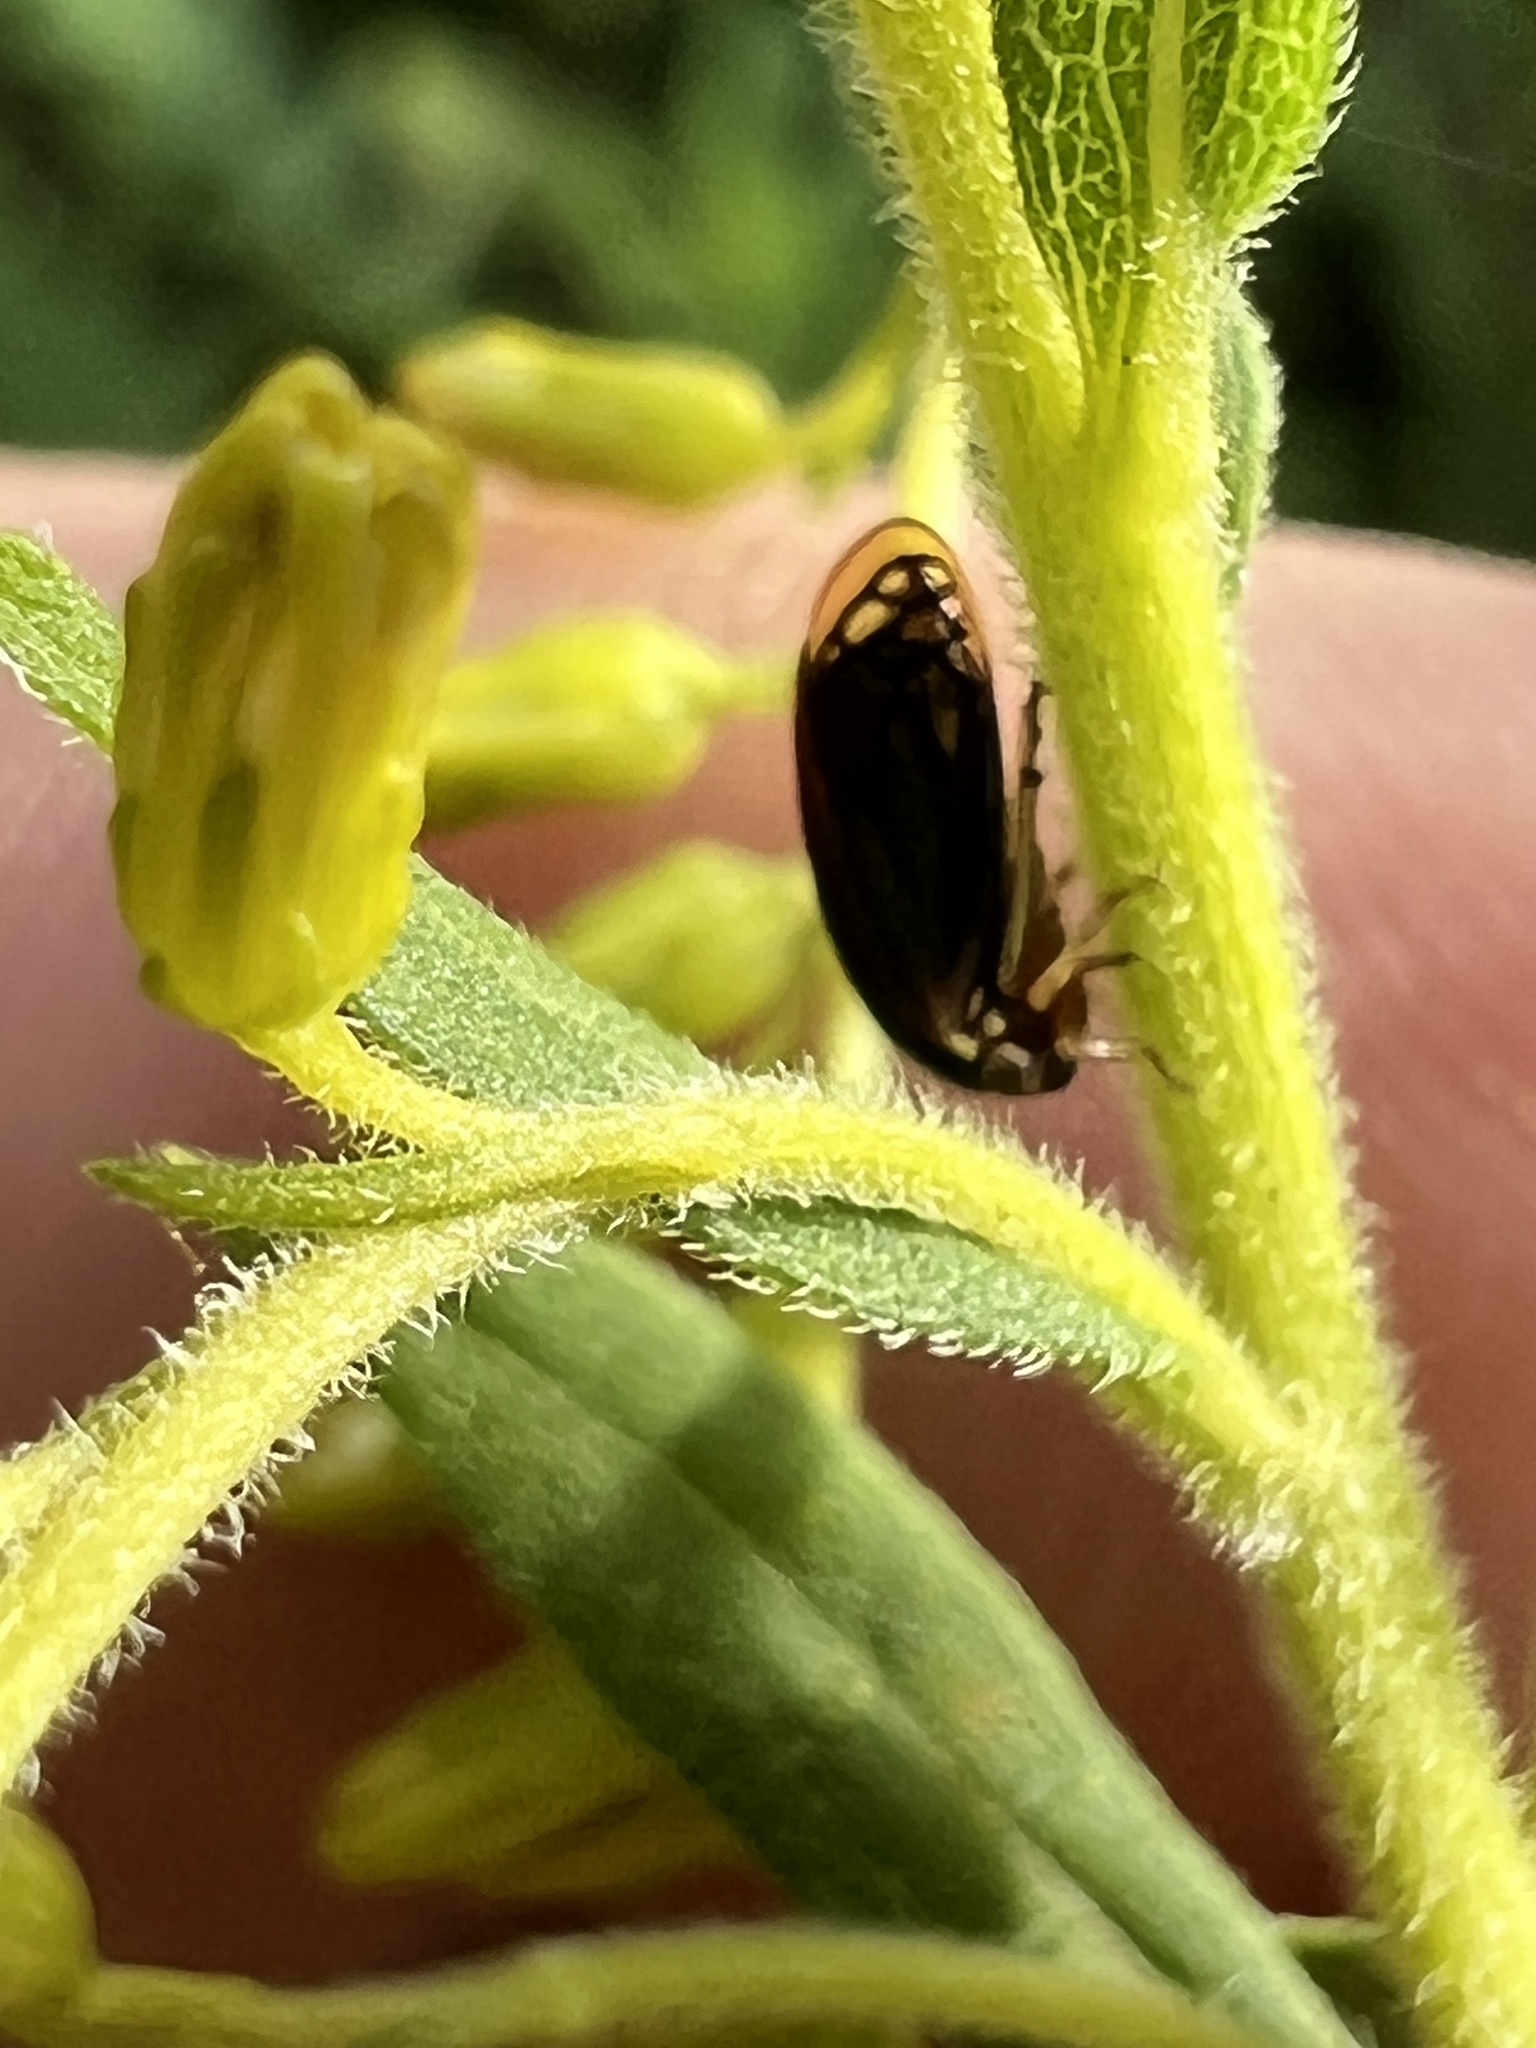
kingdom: Animalia
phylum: Arthropoda
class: Insecta
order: Hemiptera
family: Membracidae
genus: Acutalis
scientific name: Acutalis tartarea
